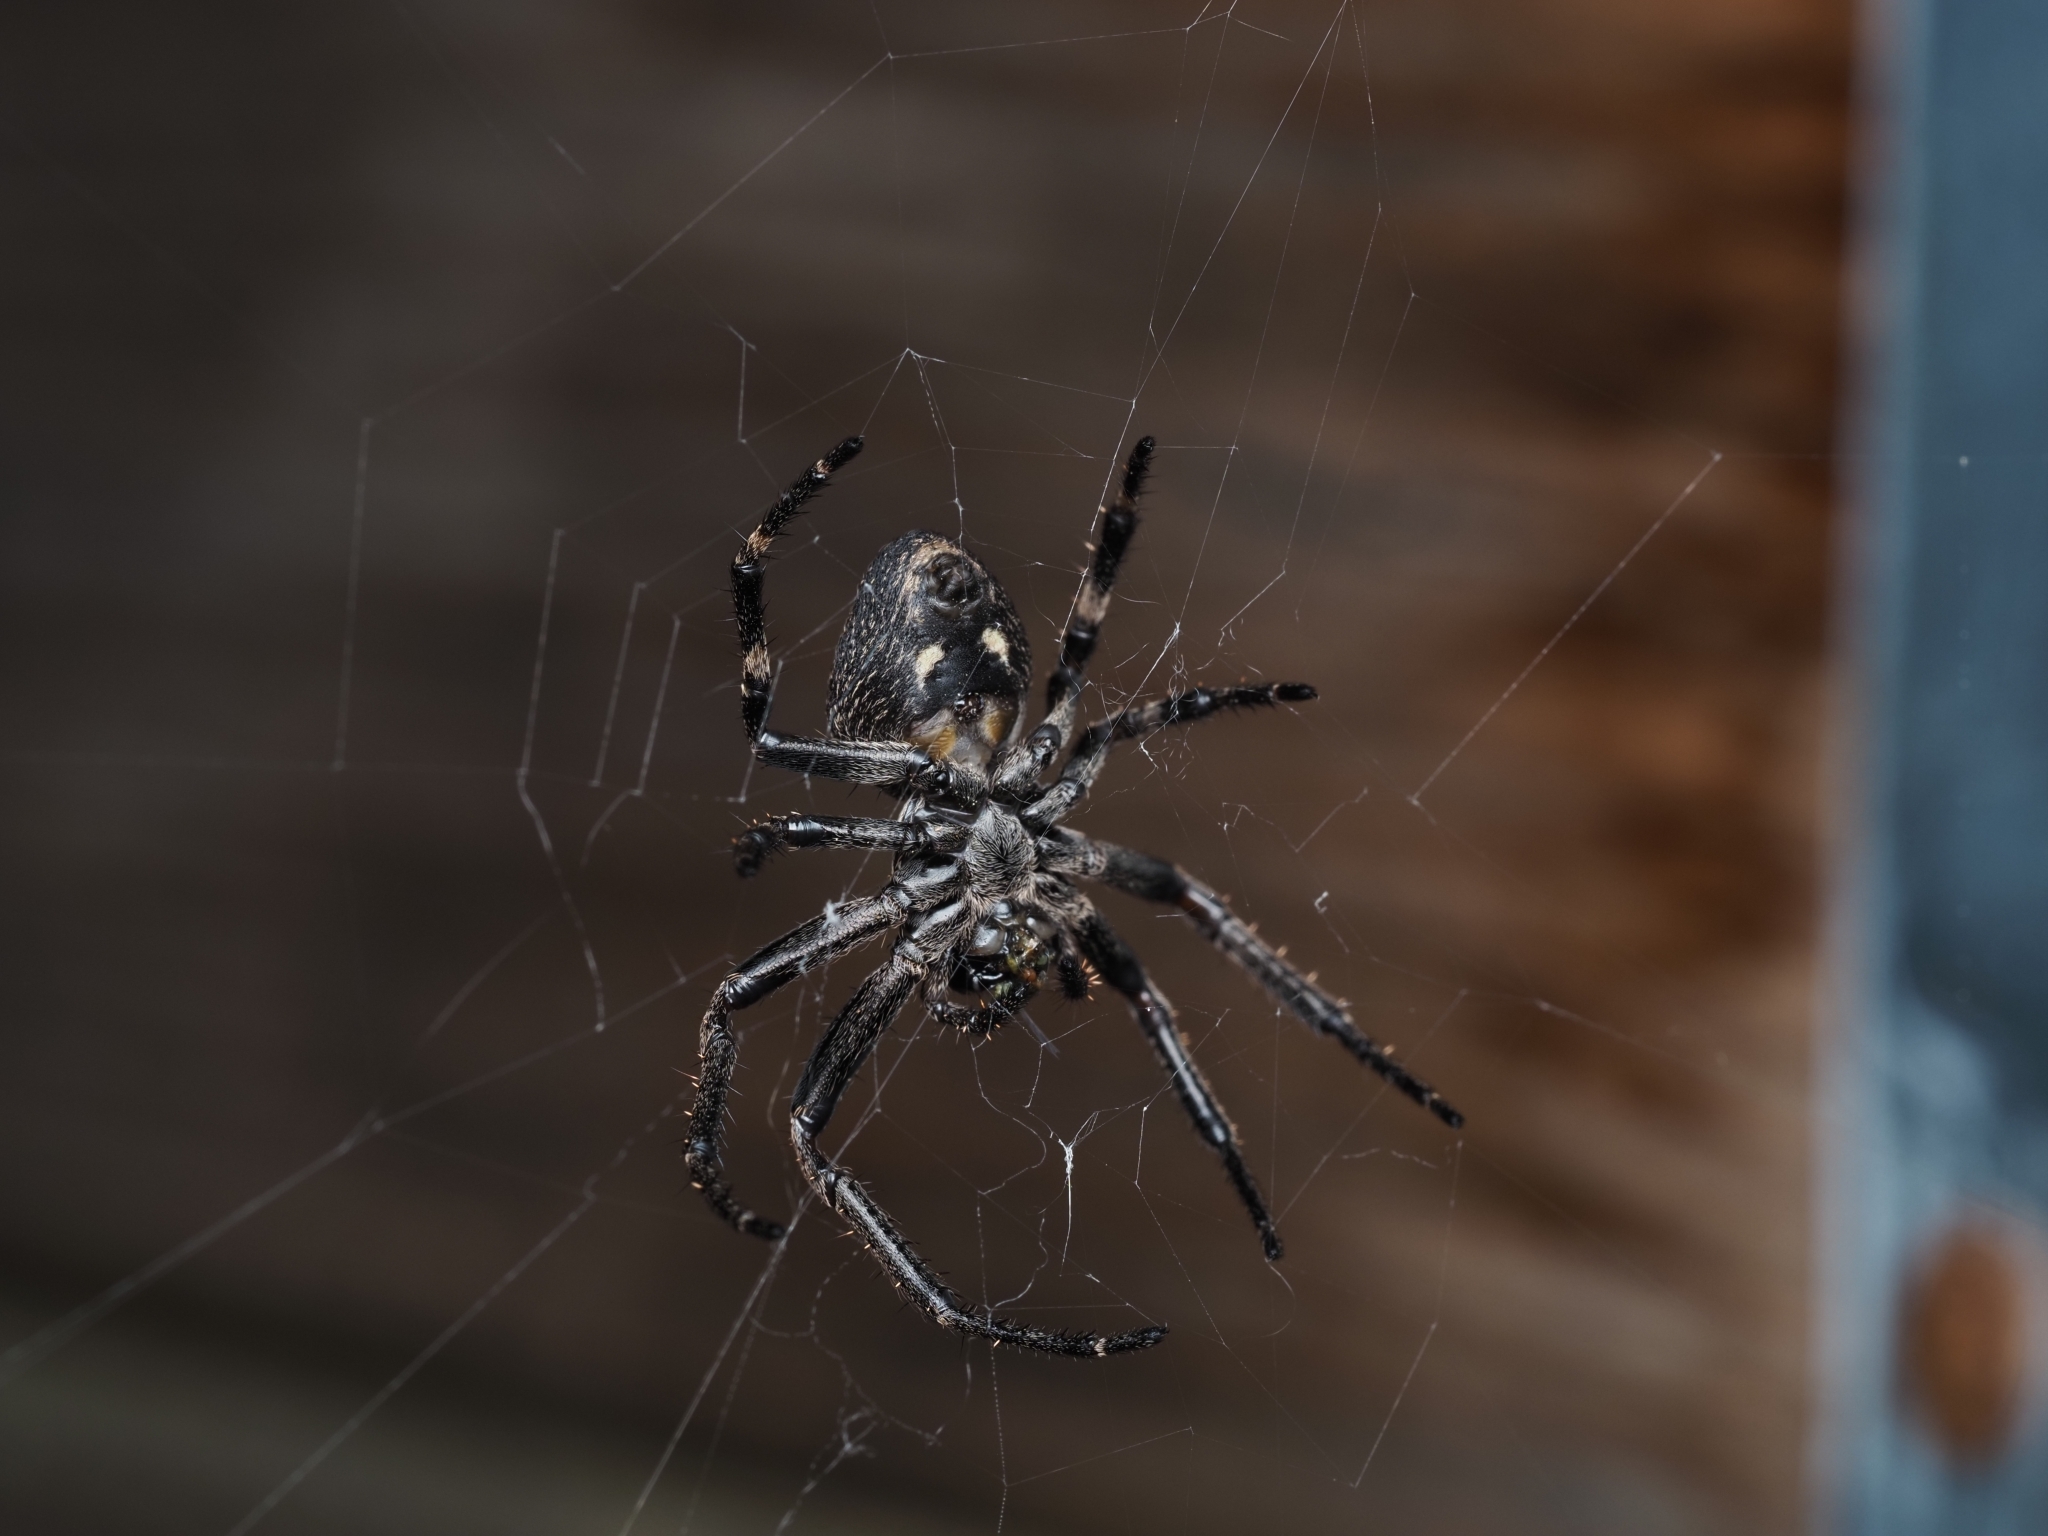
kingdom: Animalia
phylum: Arthropoda
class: Arachnida
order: Araneae
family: Araneidae
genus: Nuctenea
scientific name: Nuctenea umbratica
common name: Toad spider
